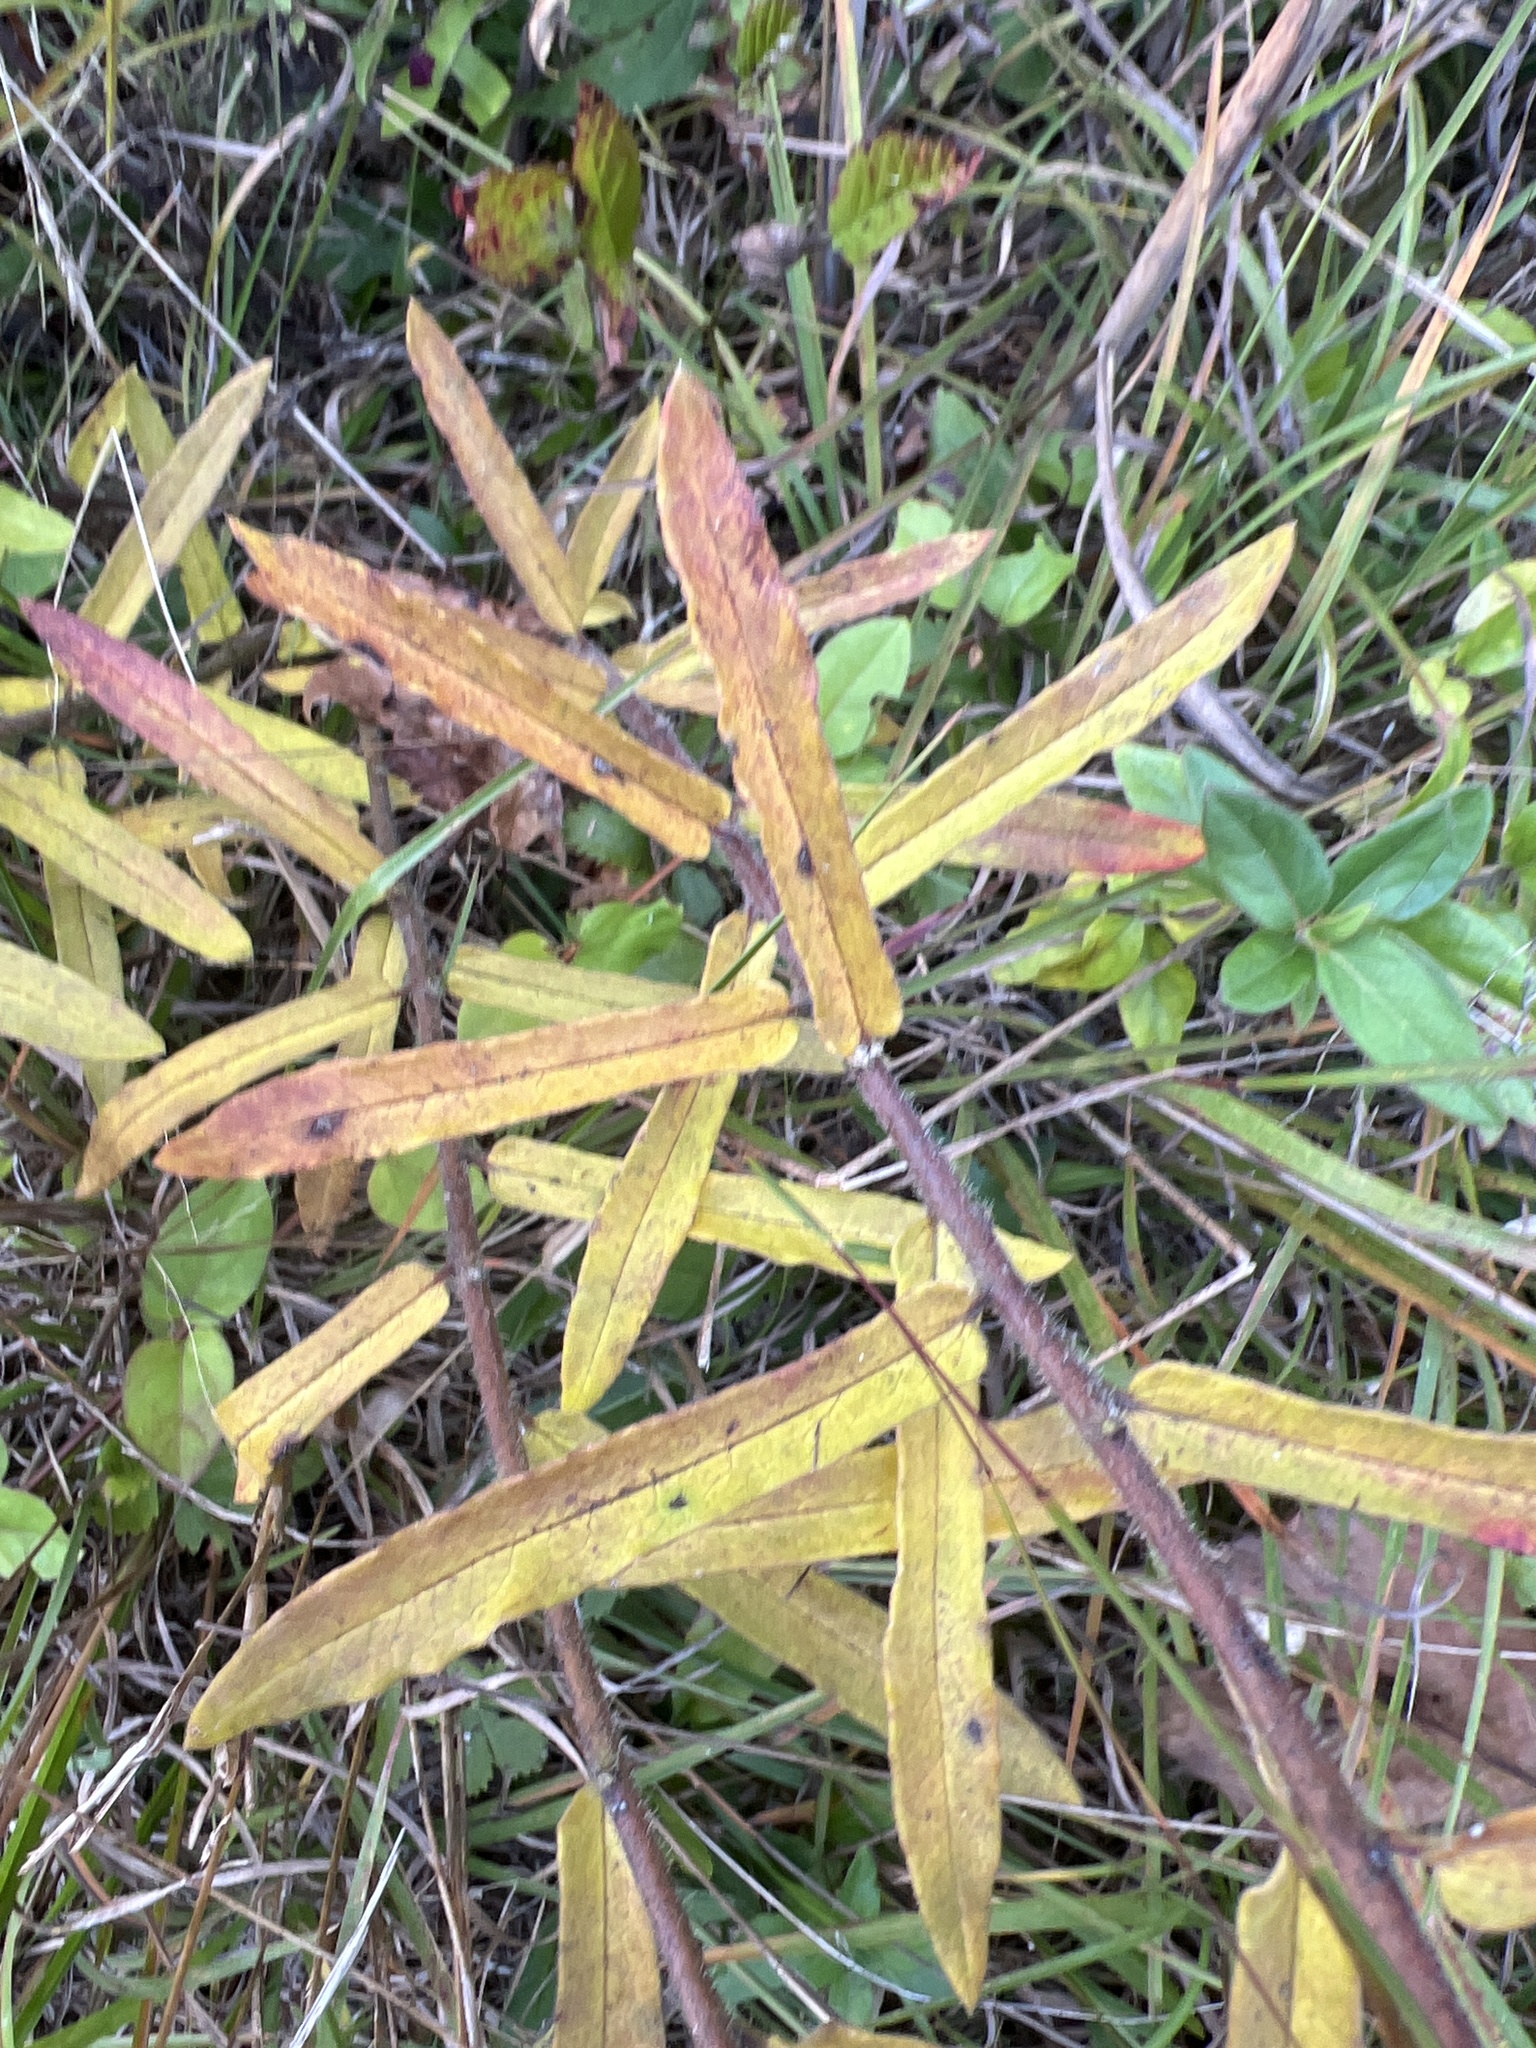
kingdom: Plantae
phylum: Tracheophyta
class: Magnoliopsida
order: Gentianales
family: Apocynaceae
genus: Asclepias
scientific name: Asclepias tuberosa
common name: Butterfly milkweed
